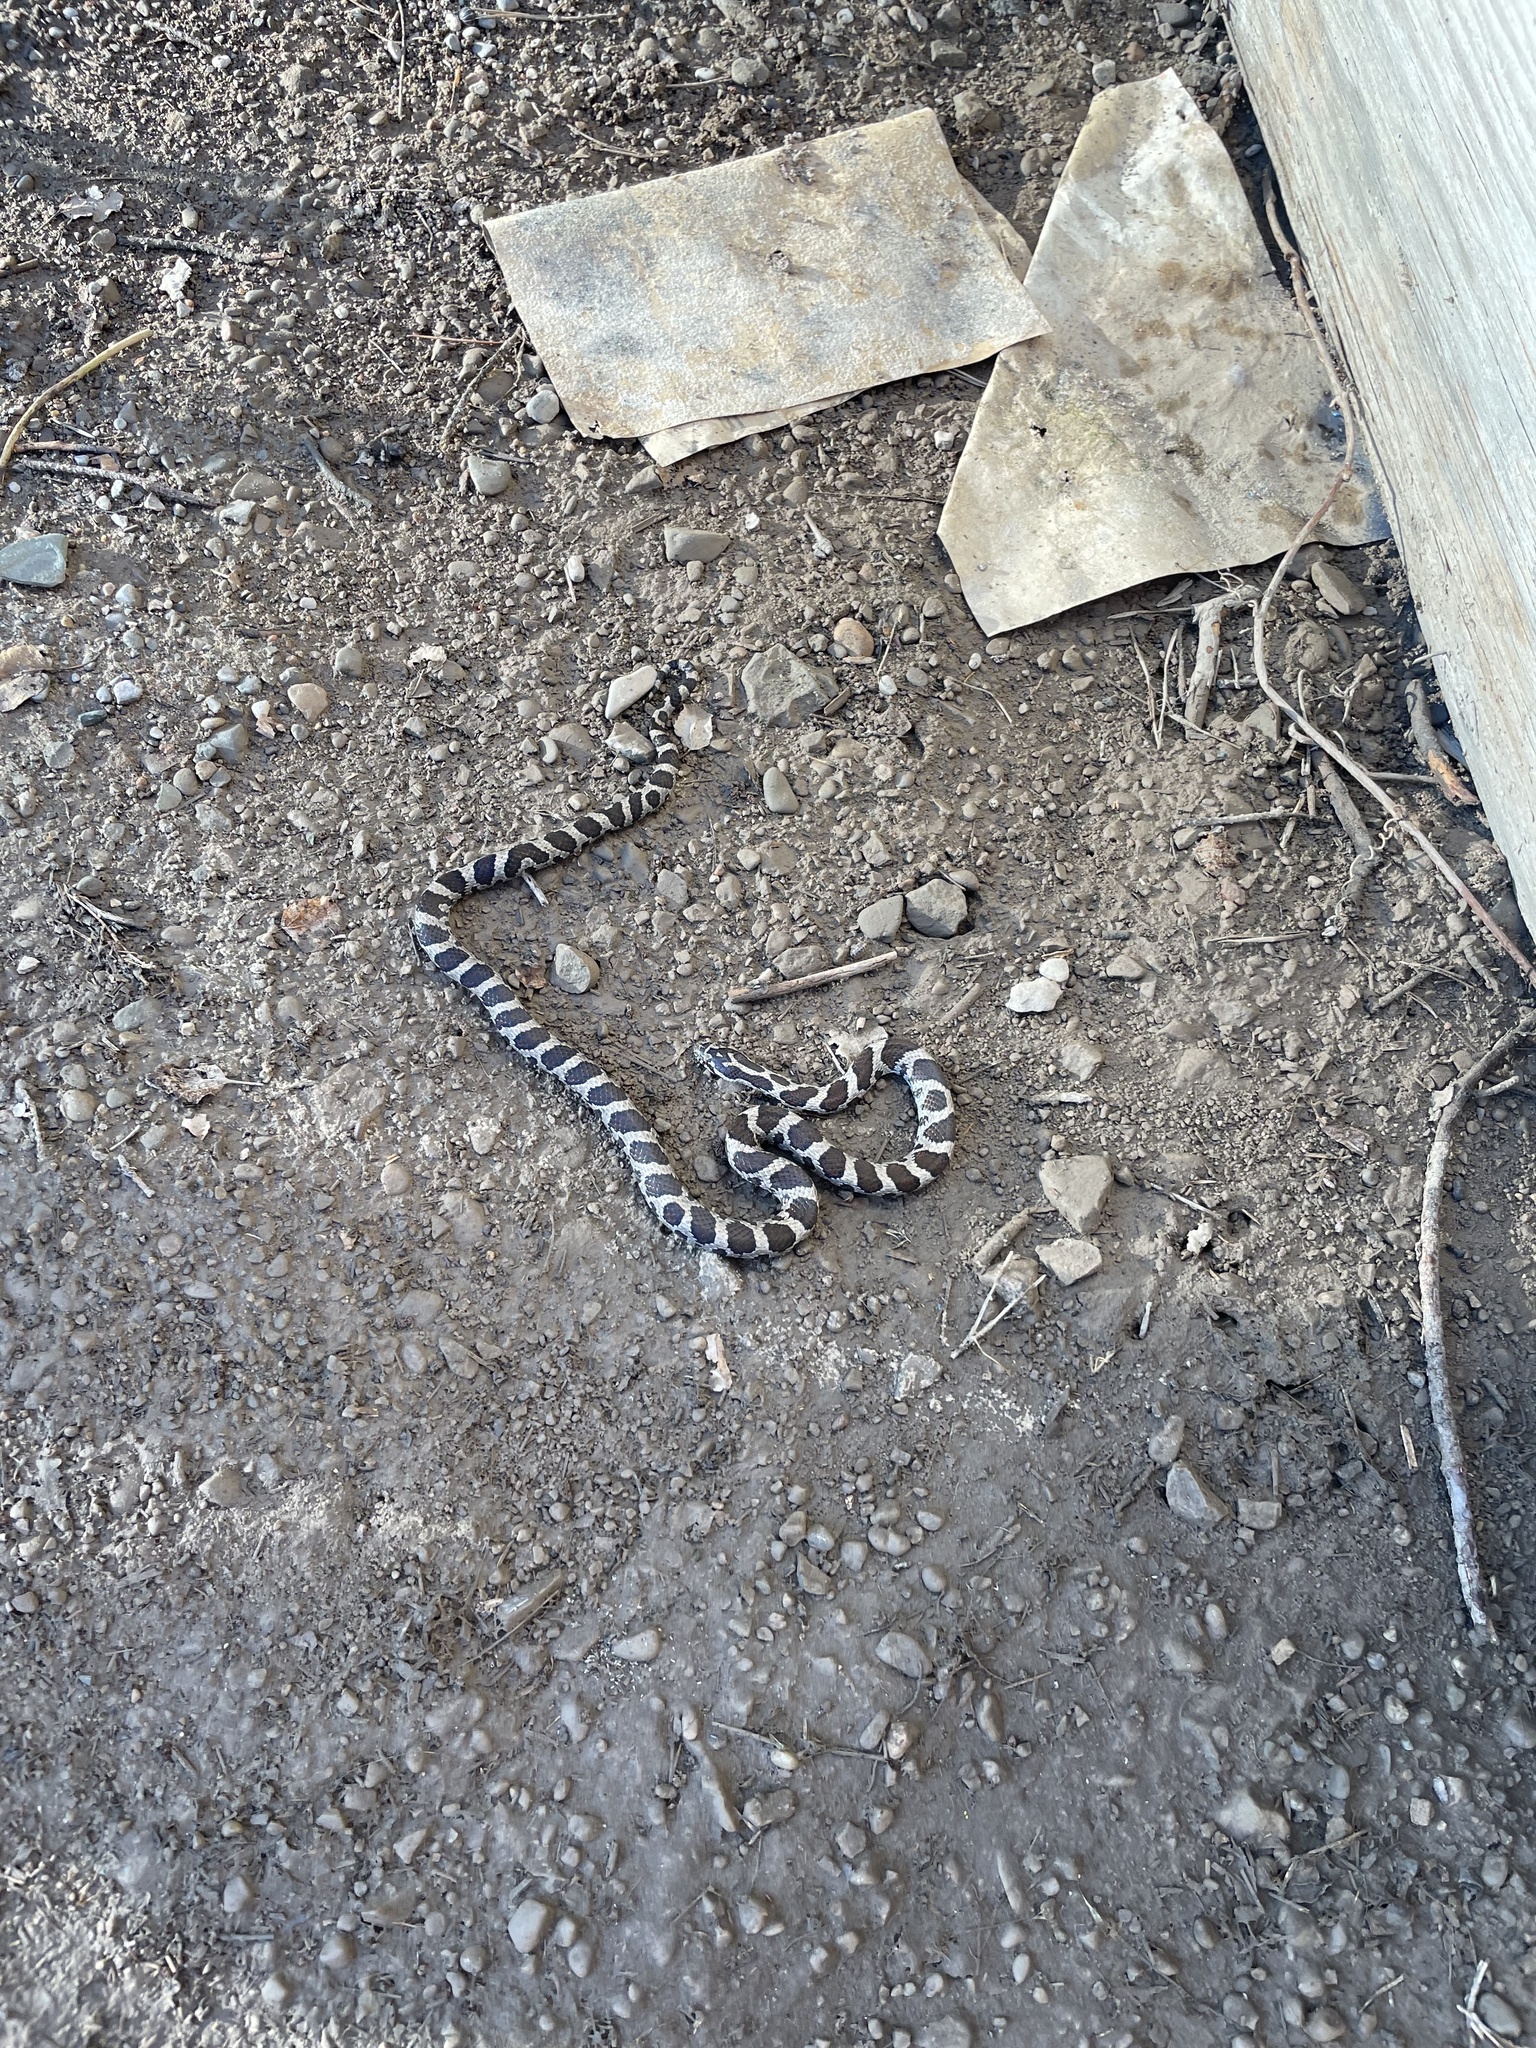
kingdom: Animalia
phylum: Chordata
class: Squamata
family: Colubridae
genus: Lampropeltis
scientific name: Lampropeltis triangulum
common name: Eastern milksnake
